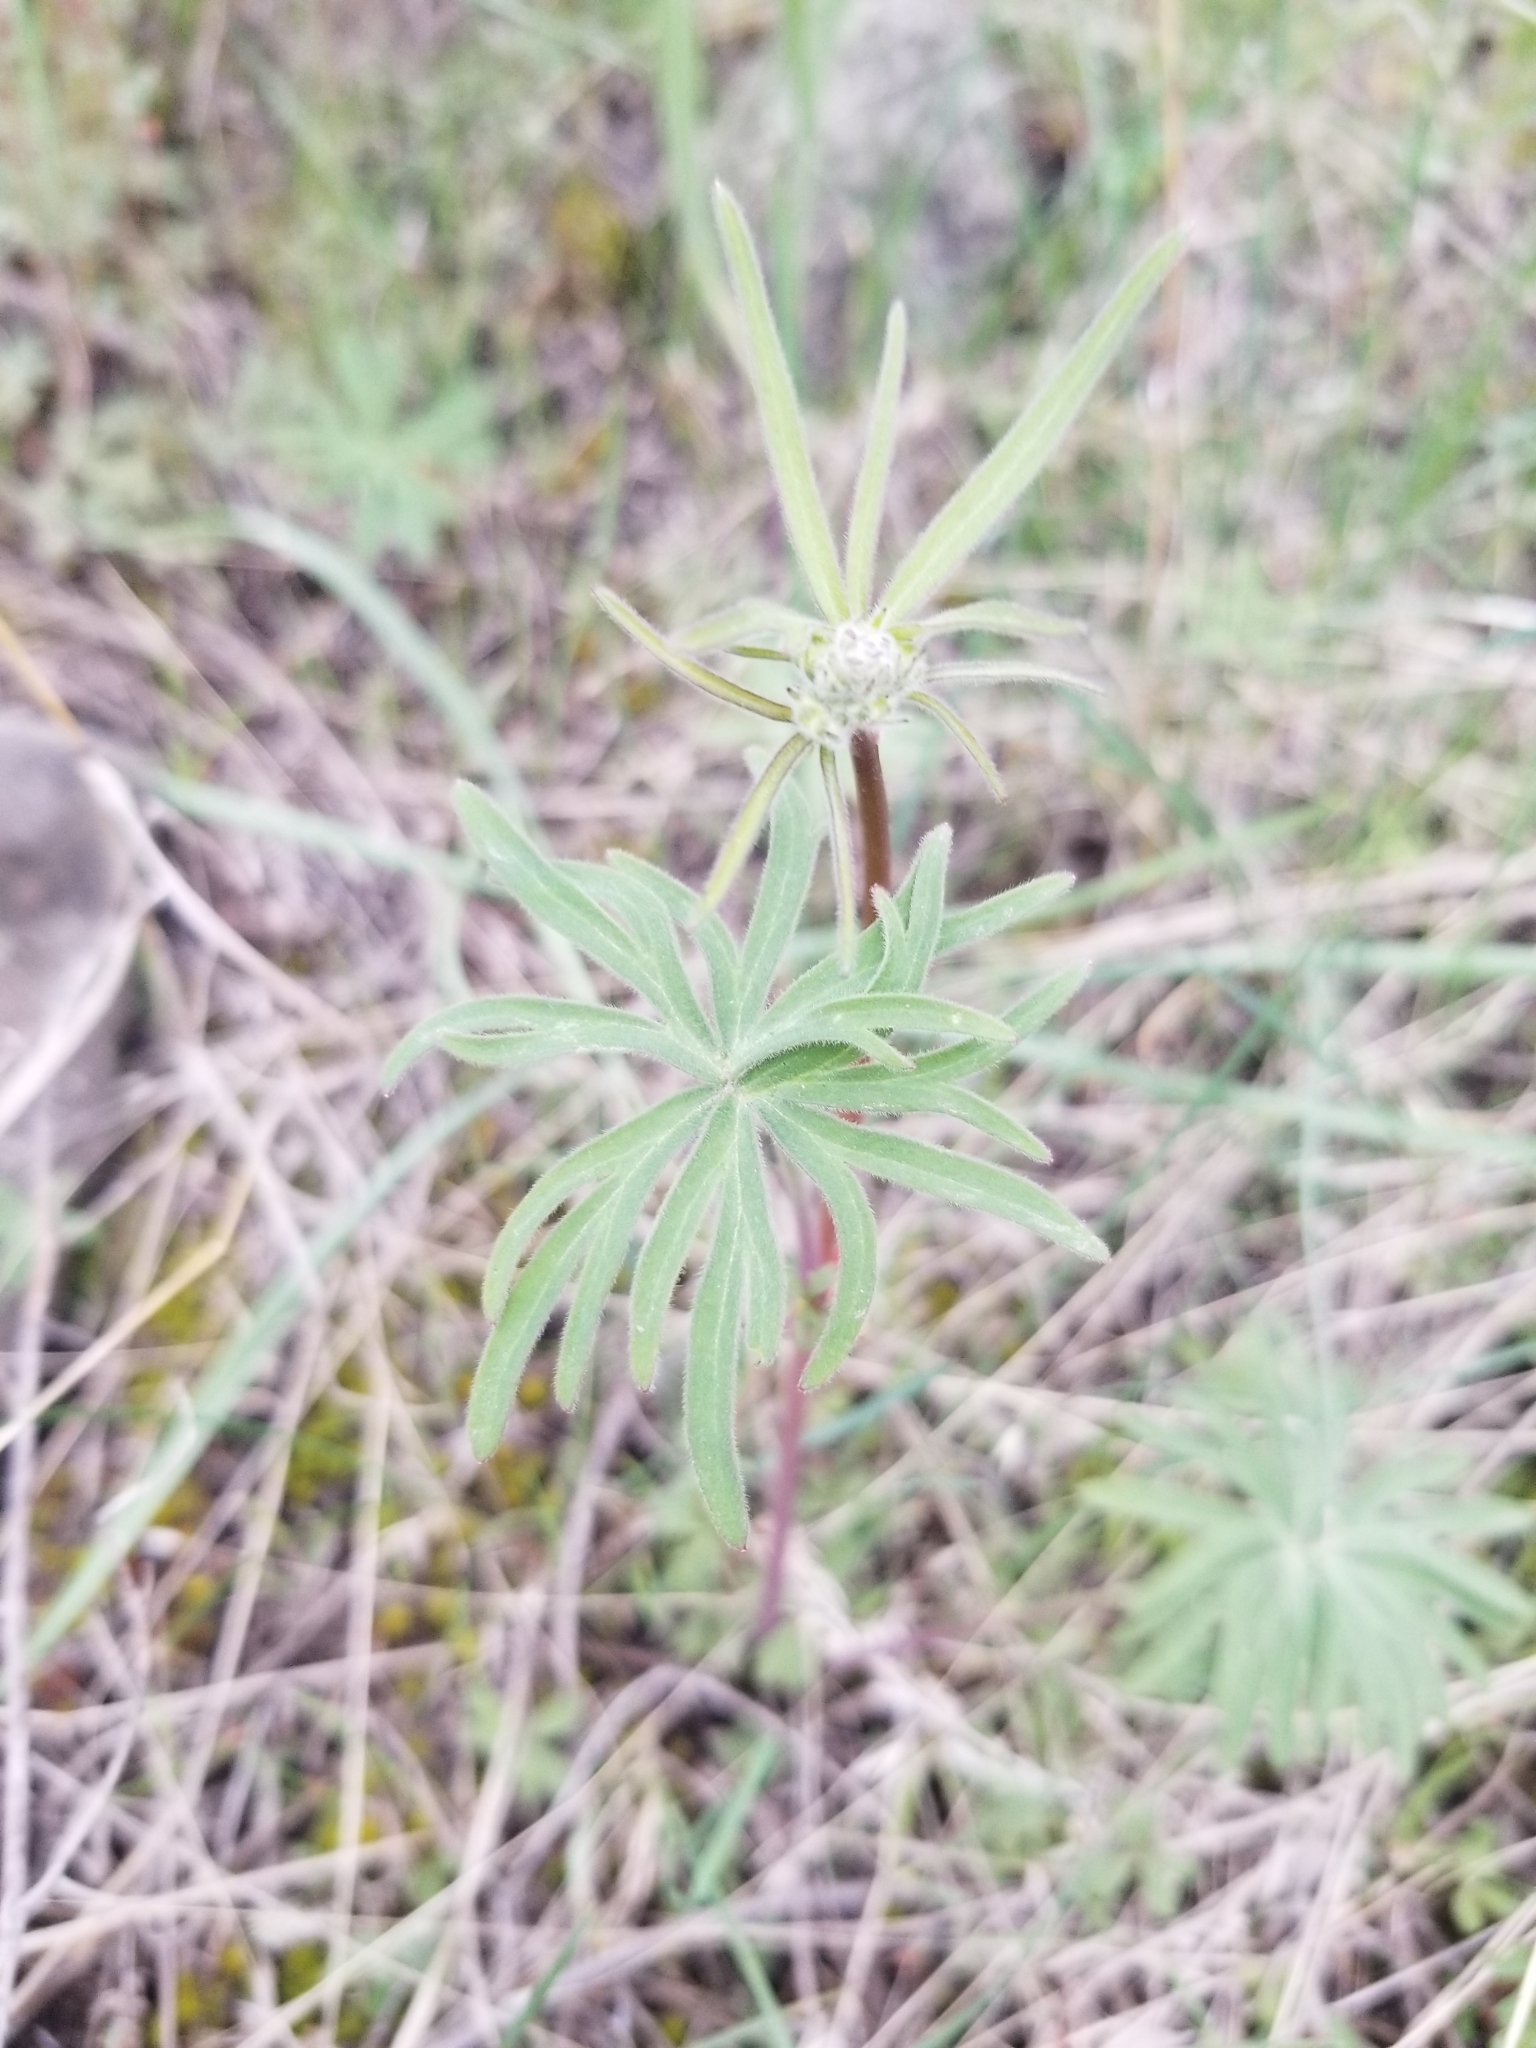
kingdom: Plantae
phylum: Tracheophyta
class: Magnoliopsida
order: Ranunculales
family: Ranunculaceae
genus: Delphinium
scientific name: Delphinium nuttallianum
